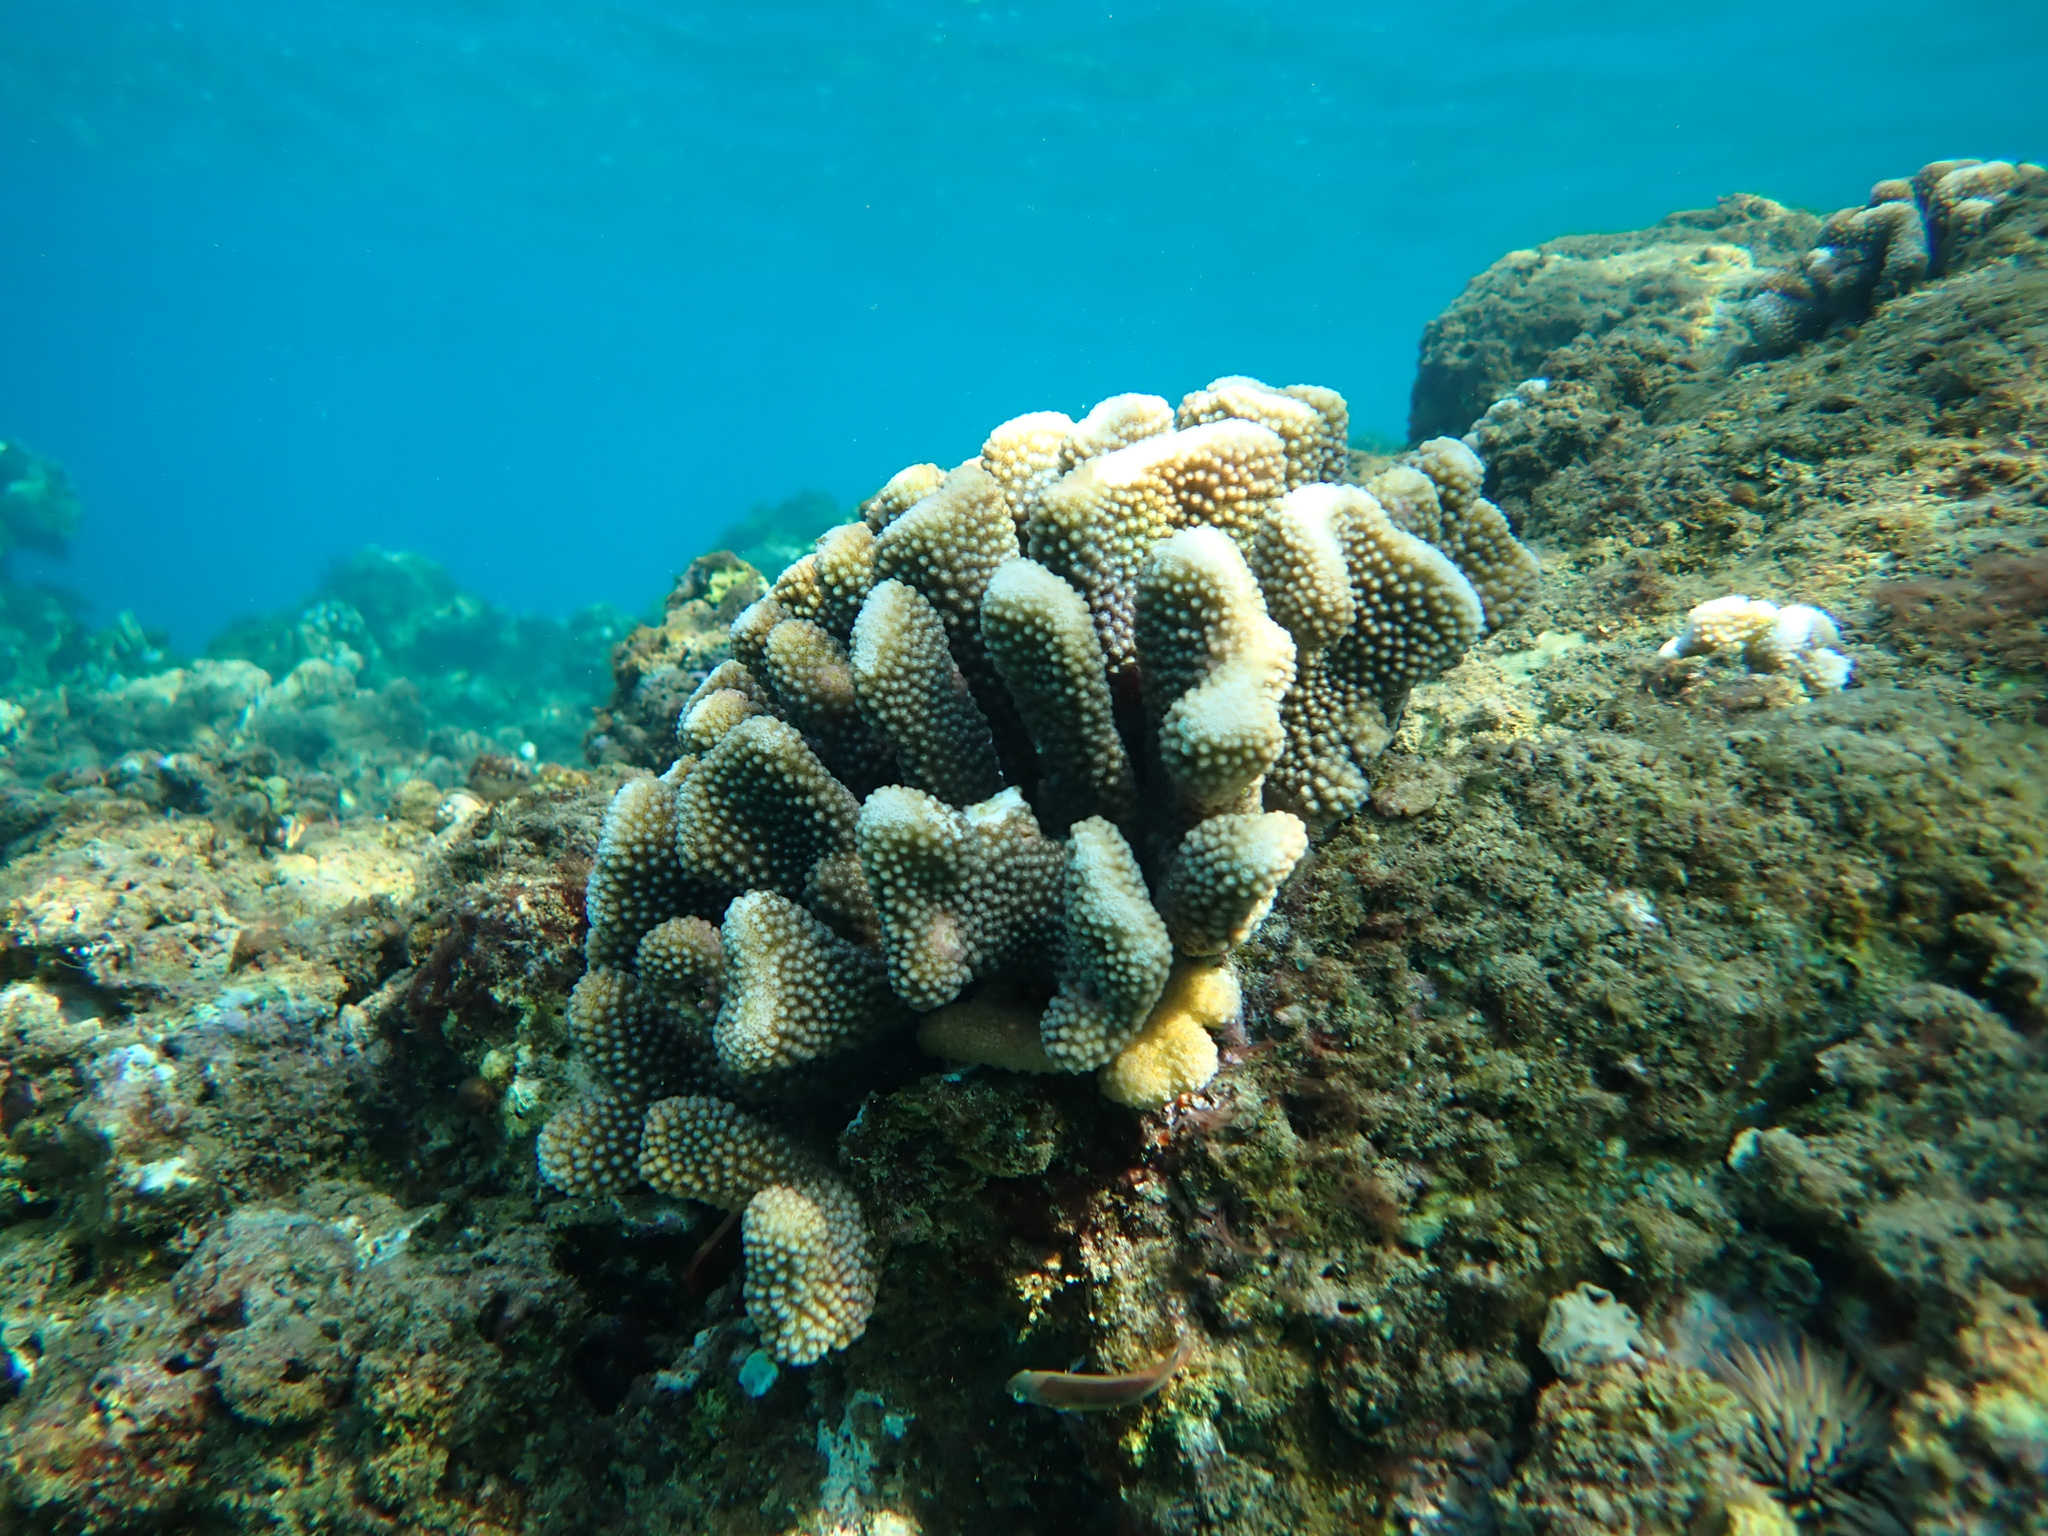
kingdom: Animalia
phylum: Cnidaria
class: Anthozoa
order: Scleractinia
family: Pocilloporidae
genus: Pocillopora
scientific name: Pocillopora grandis
